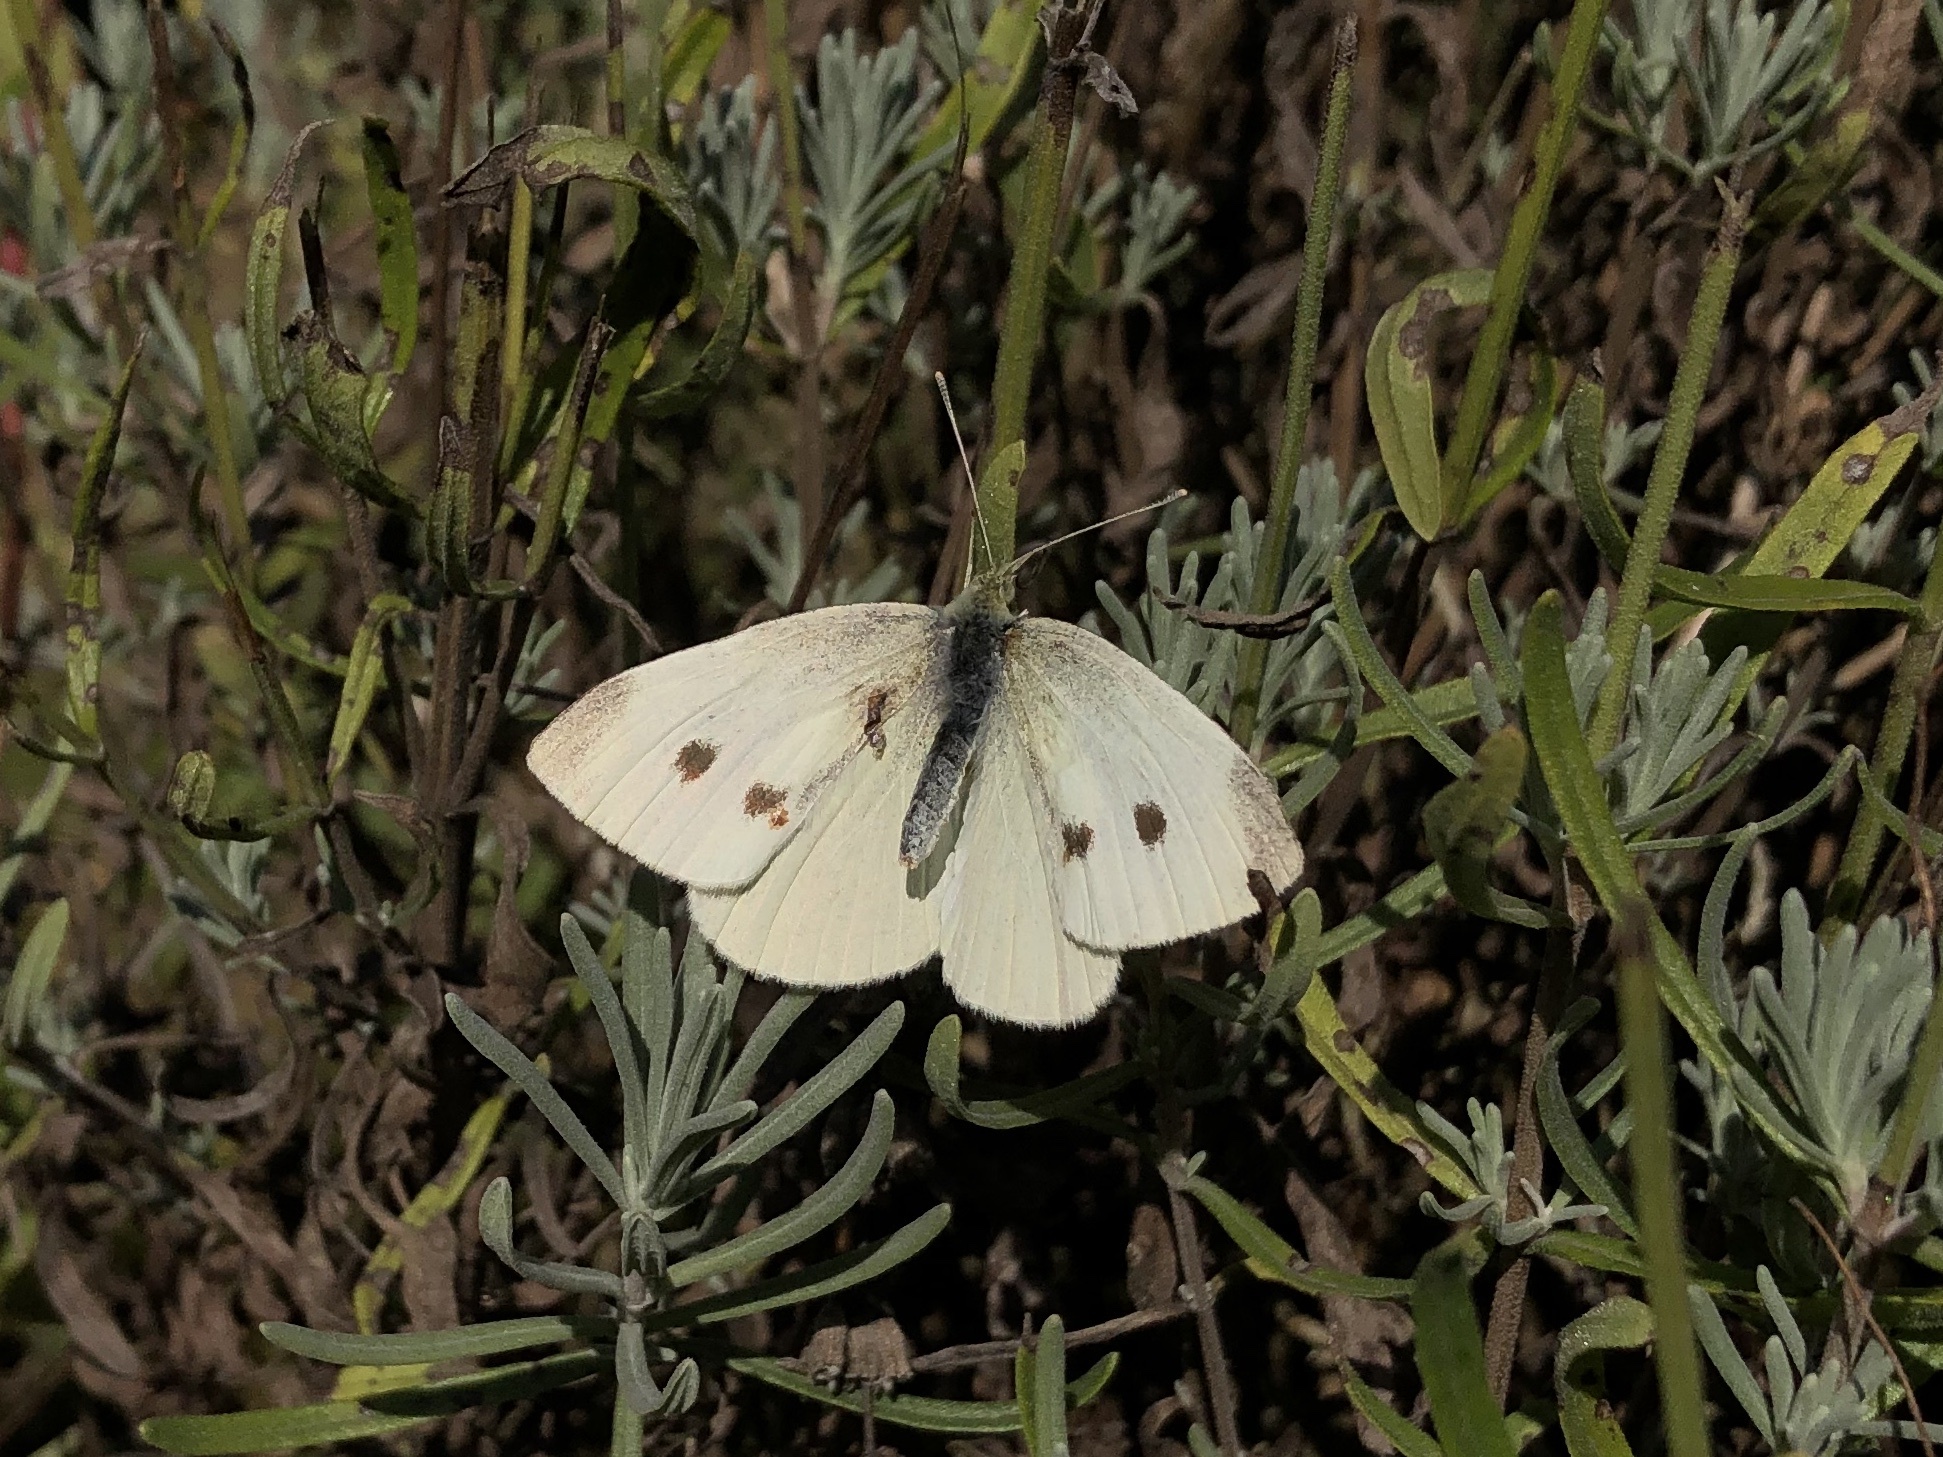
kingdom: Animalia
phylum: Arthropoda
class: Insecta
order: Lepidoptera
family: Pieridae
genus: Pieris
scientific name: Pieris rapae
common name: Small white
